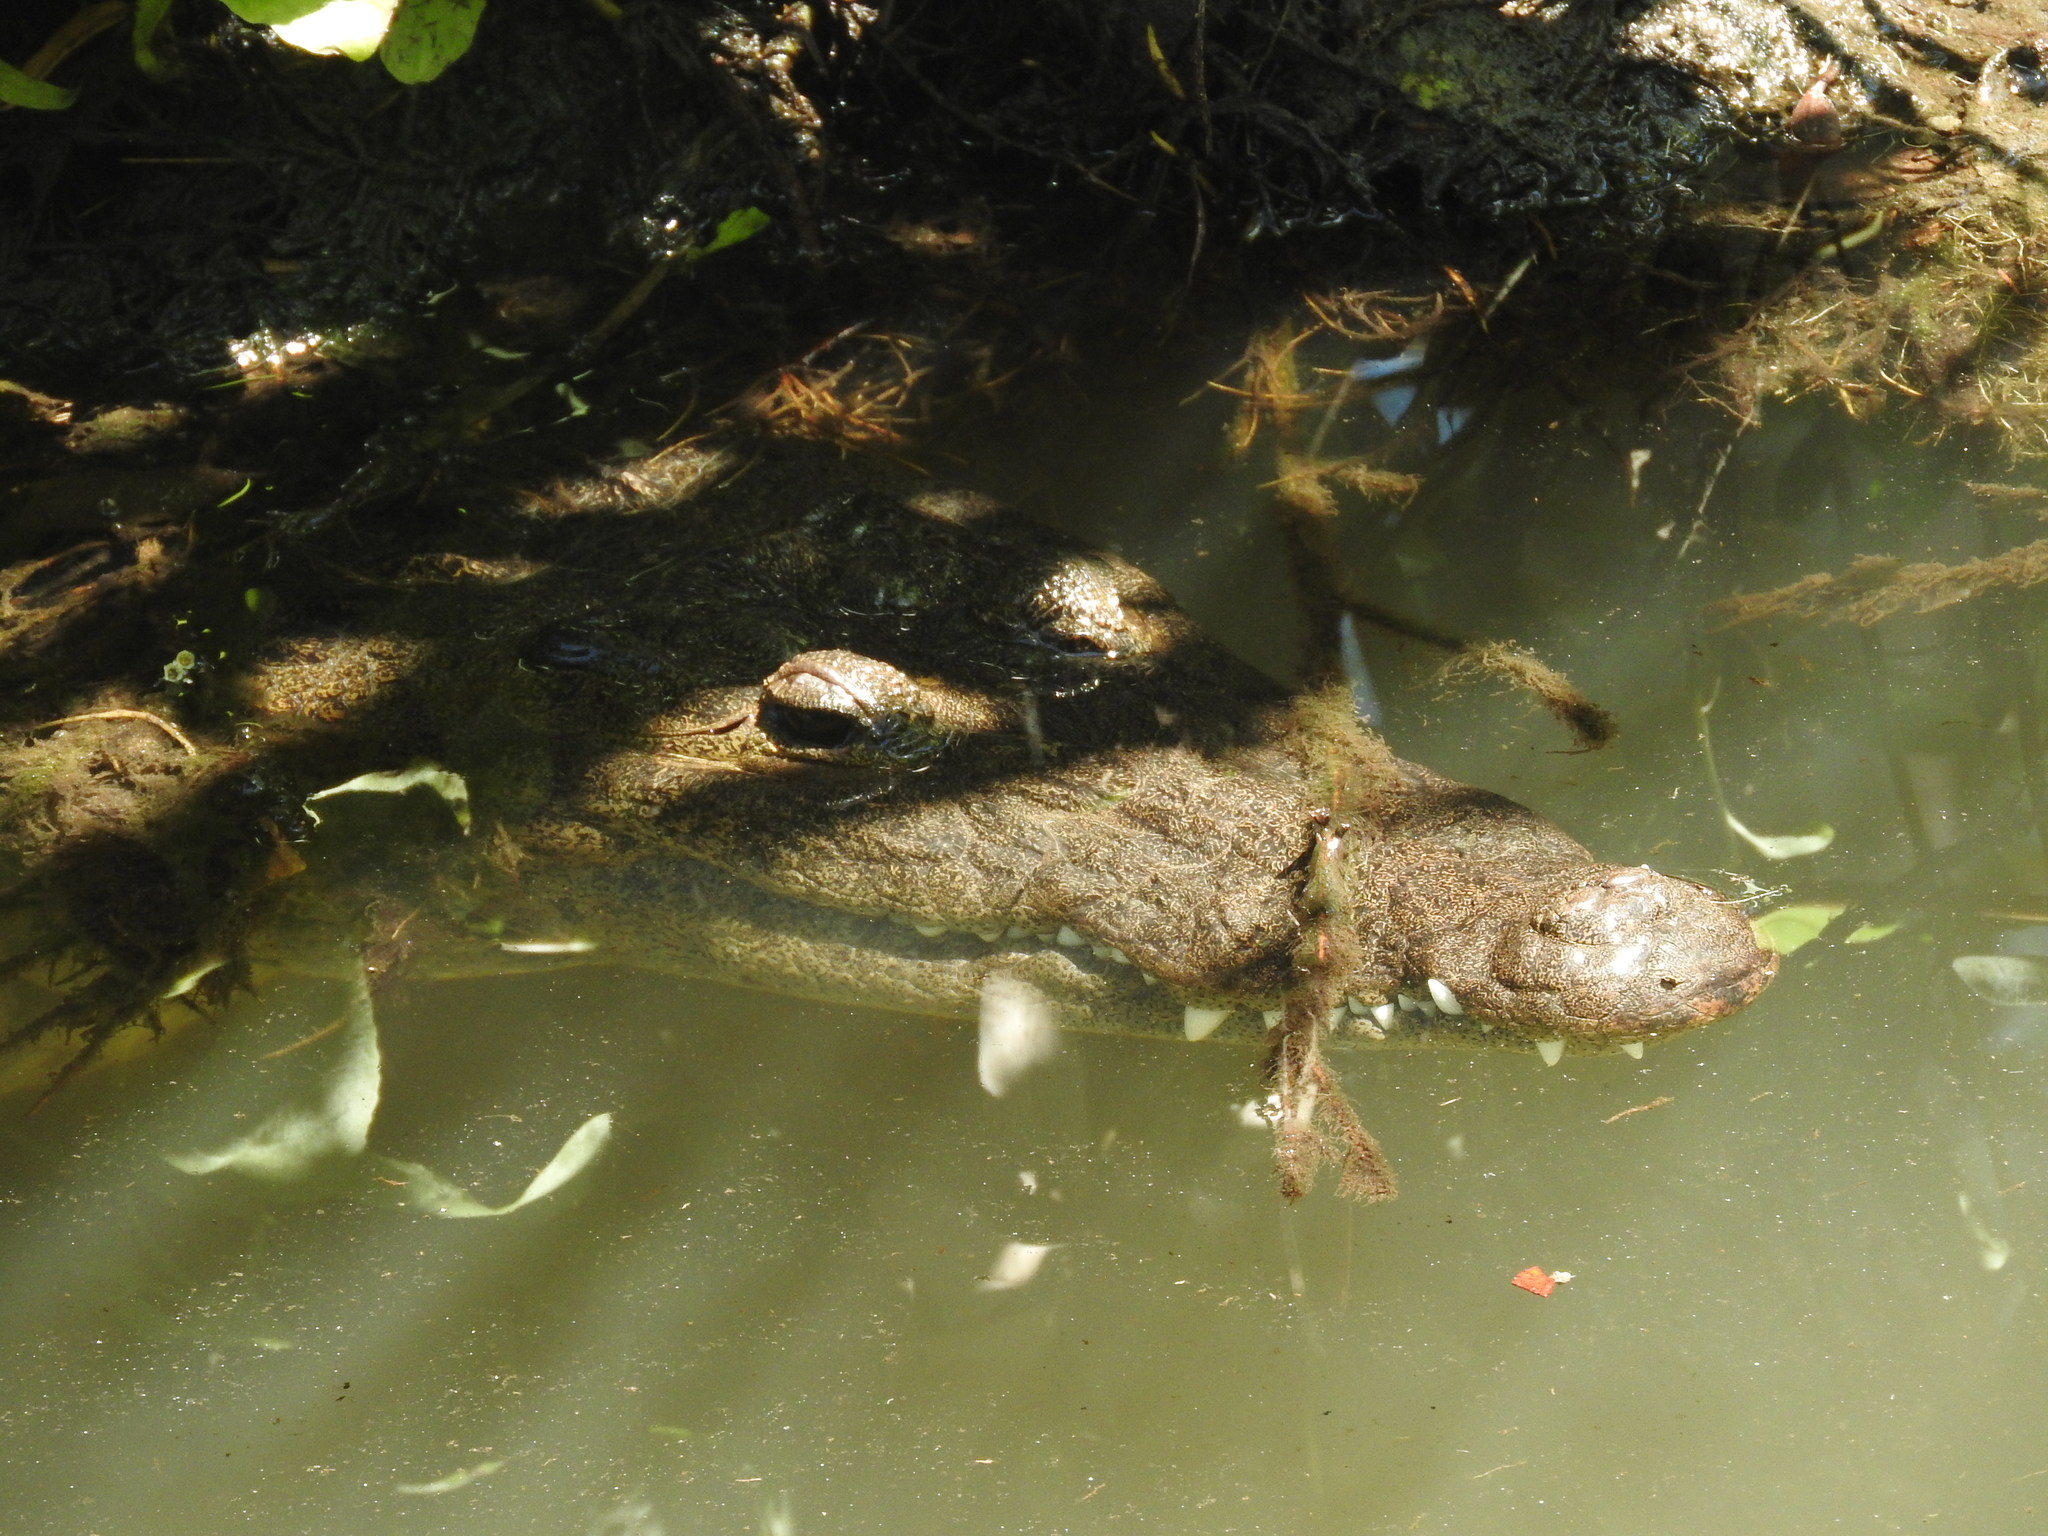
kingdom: Animalia
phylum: Chordata
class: Crocodylia
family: Crocodylidae
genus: Crocodylus
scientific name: Crocodylus moreletii
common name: Morelet's crocodile
